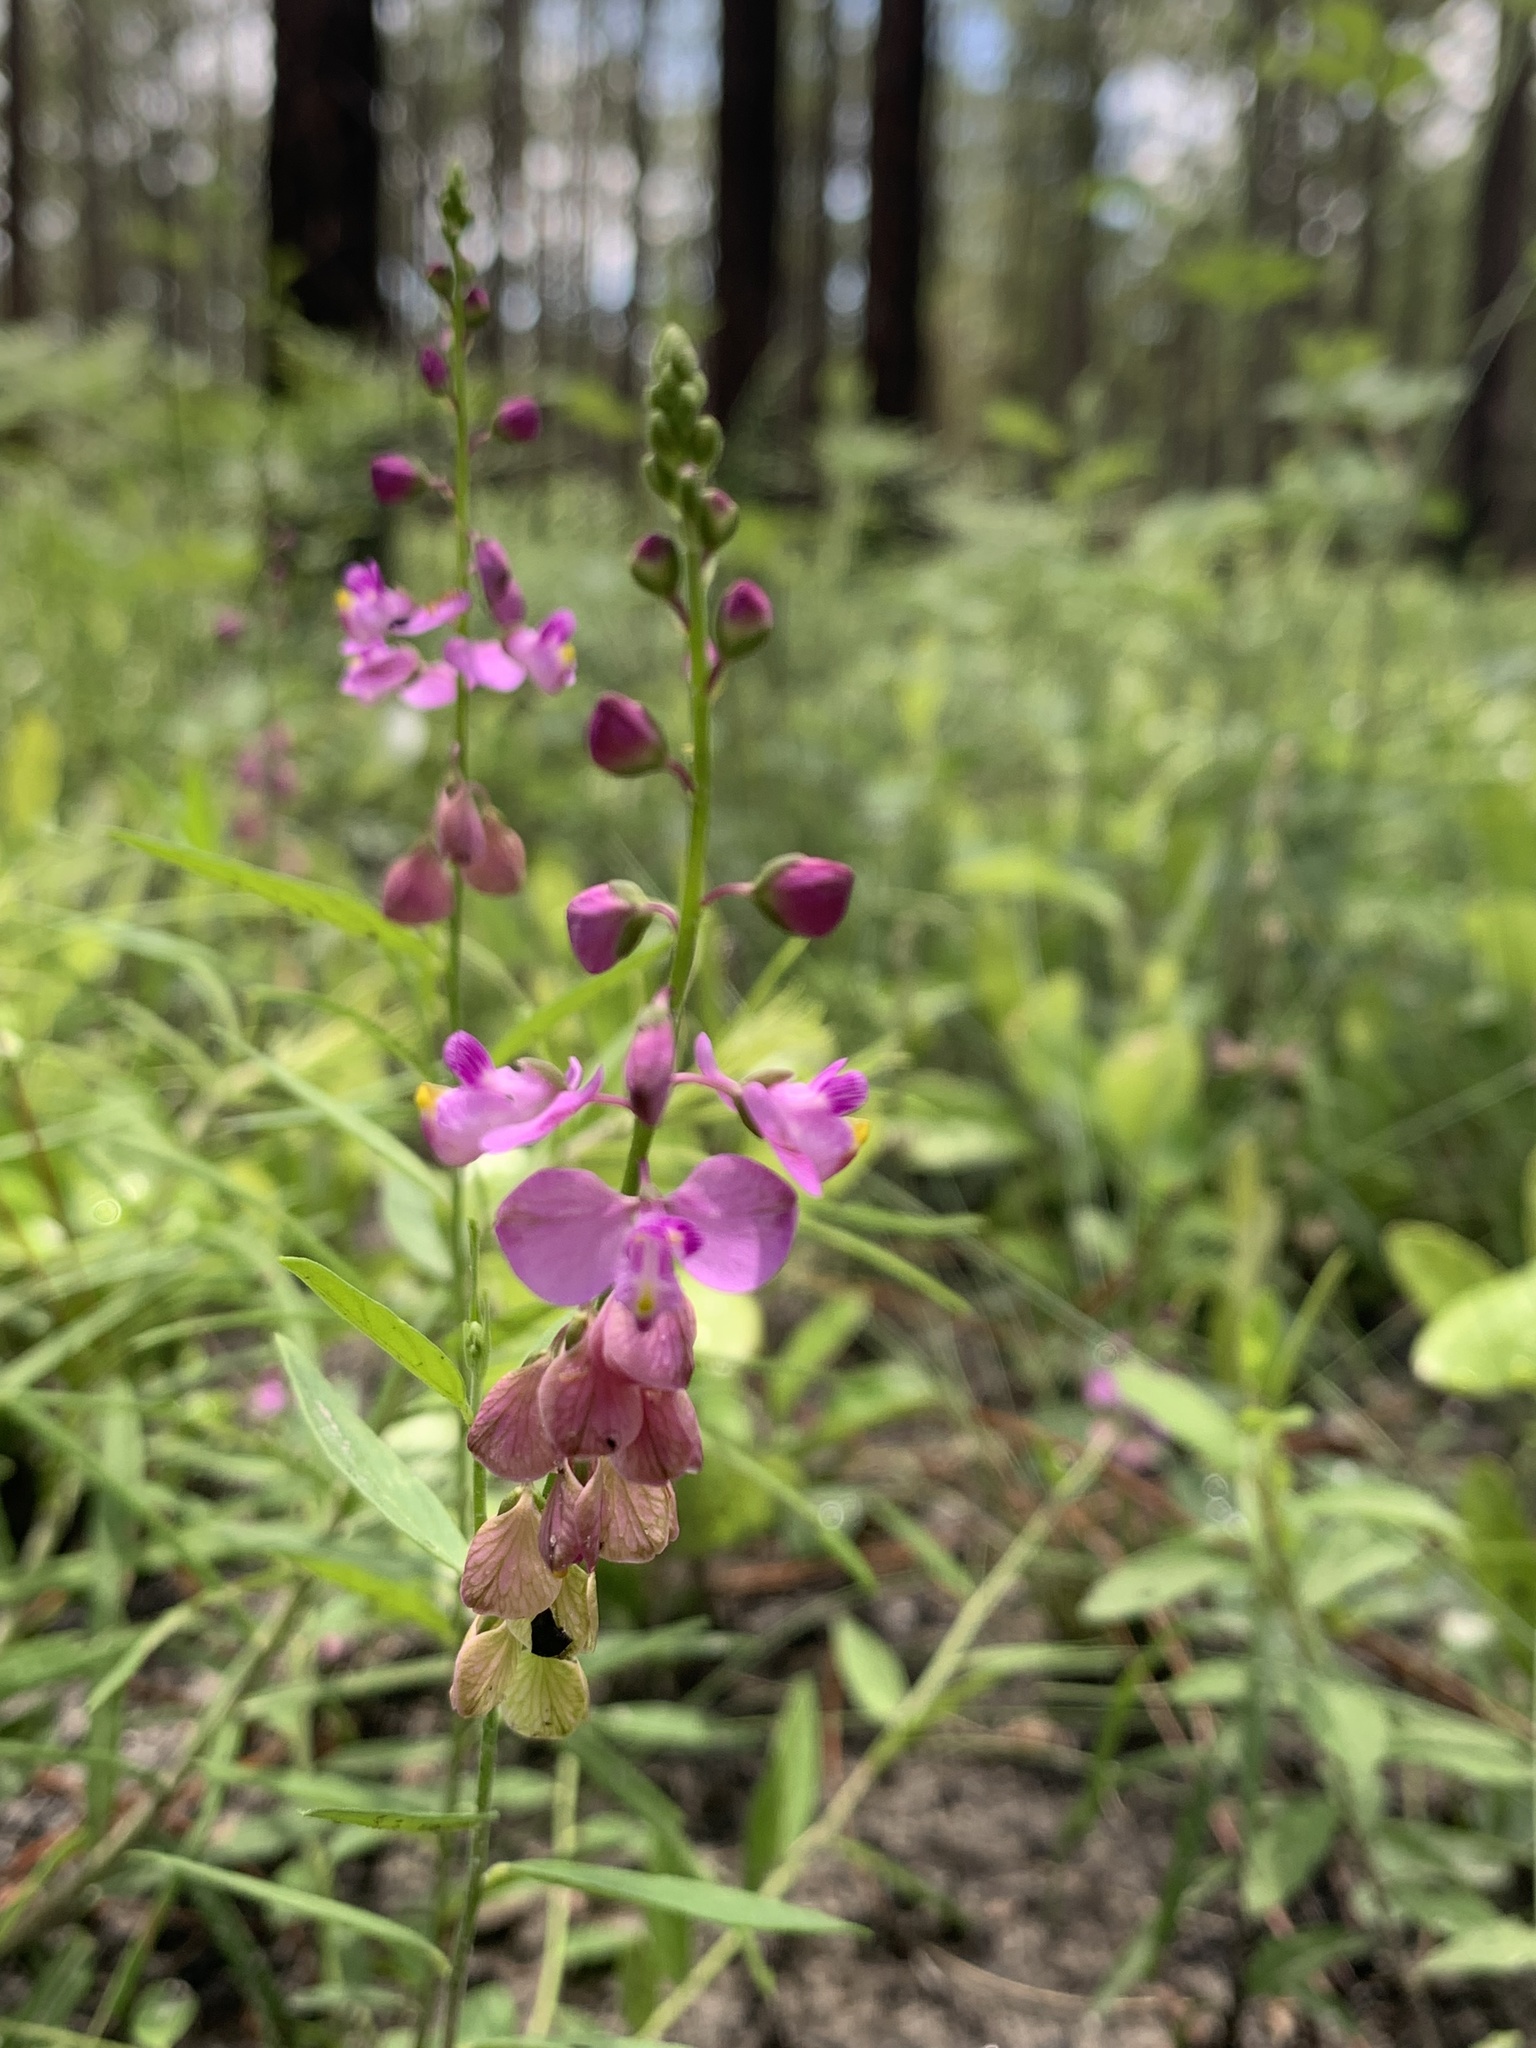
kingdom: Plantae
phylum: Tracheophyta
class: Magnoliopsida
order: Fabales
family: Polygalaceae
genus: Asemeia
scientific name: Asemeia grandiflora
